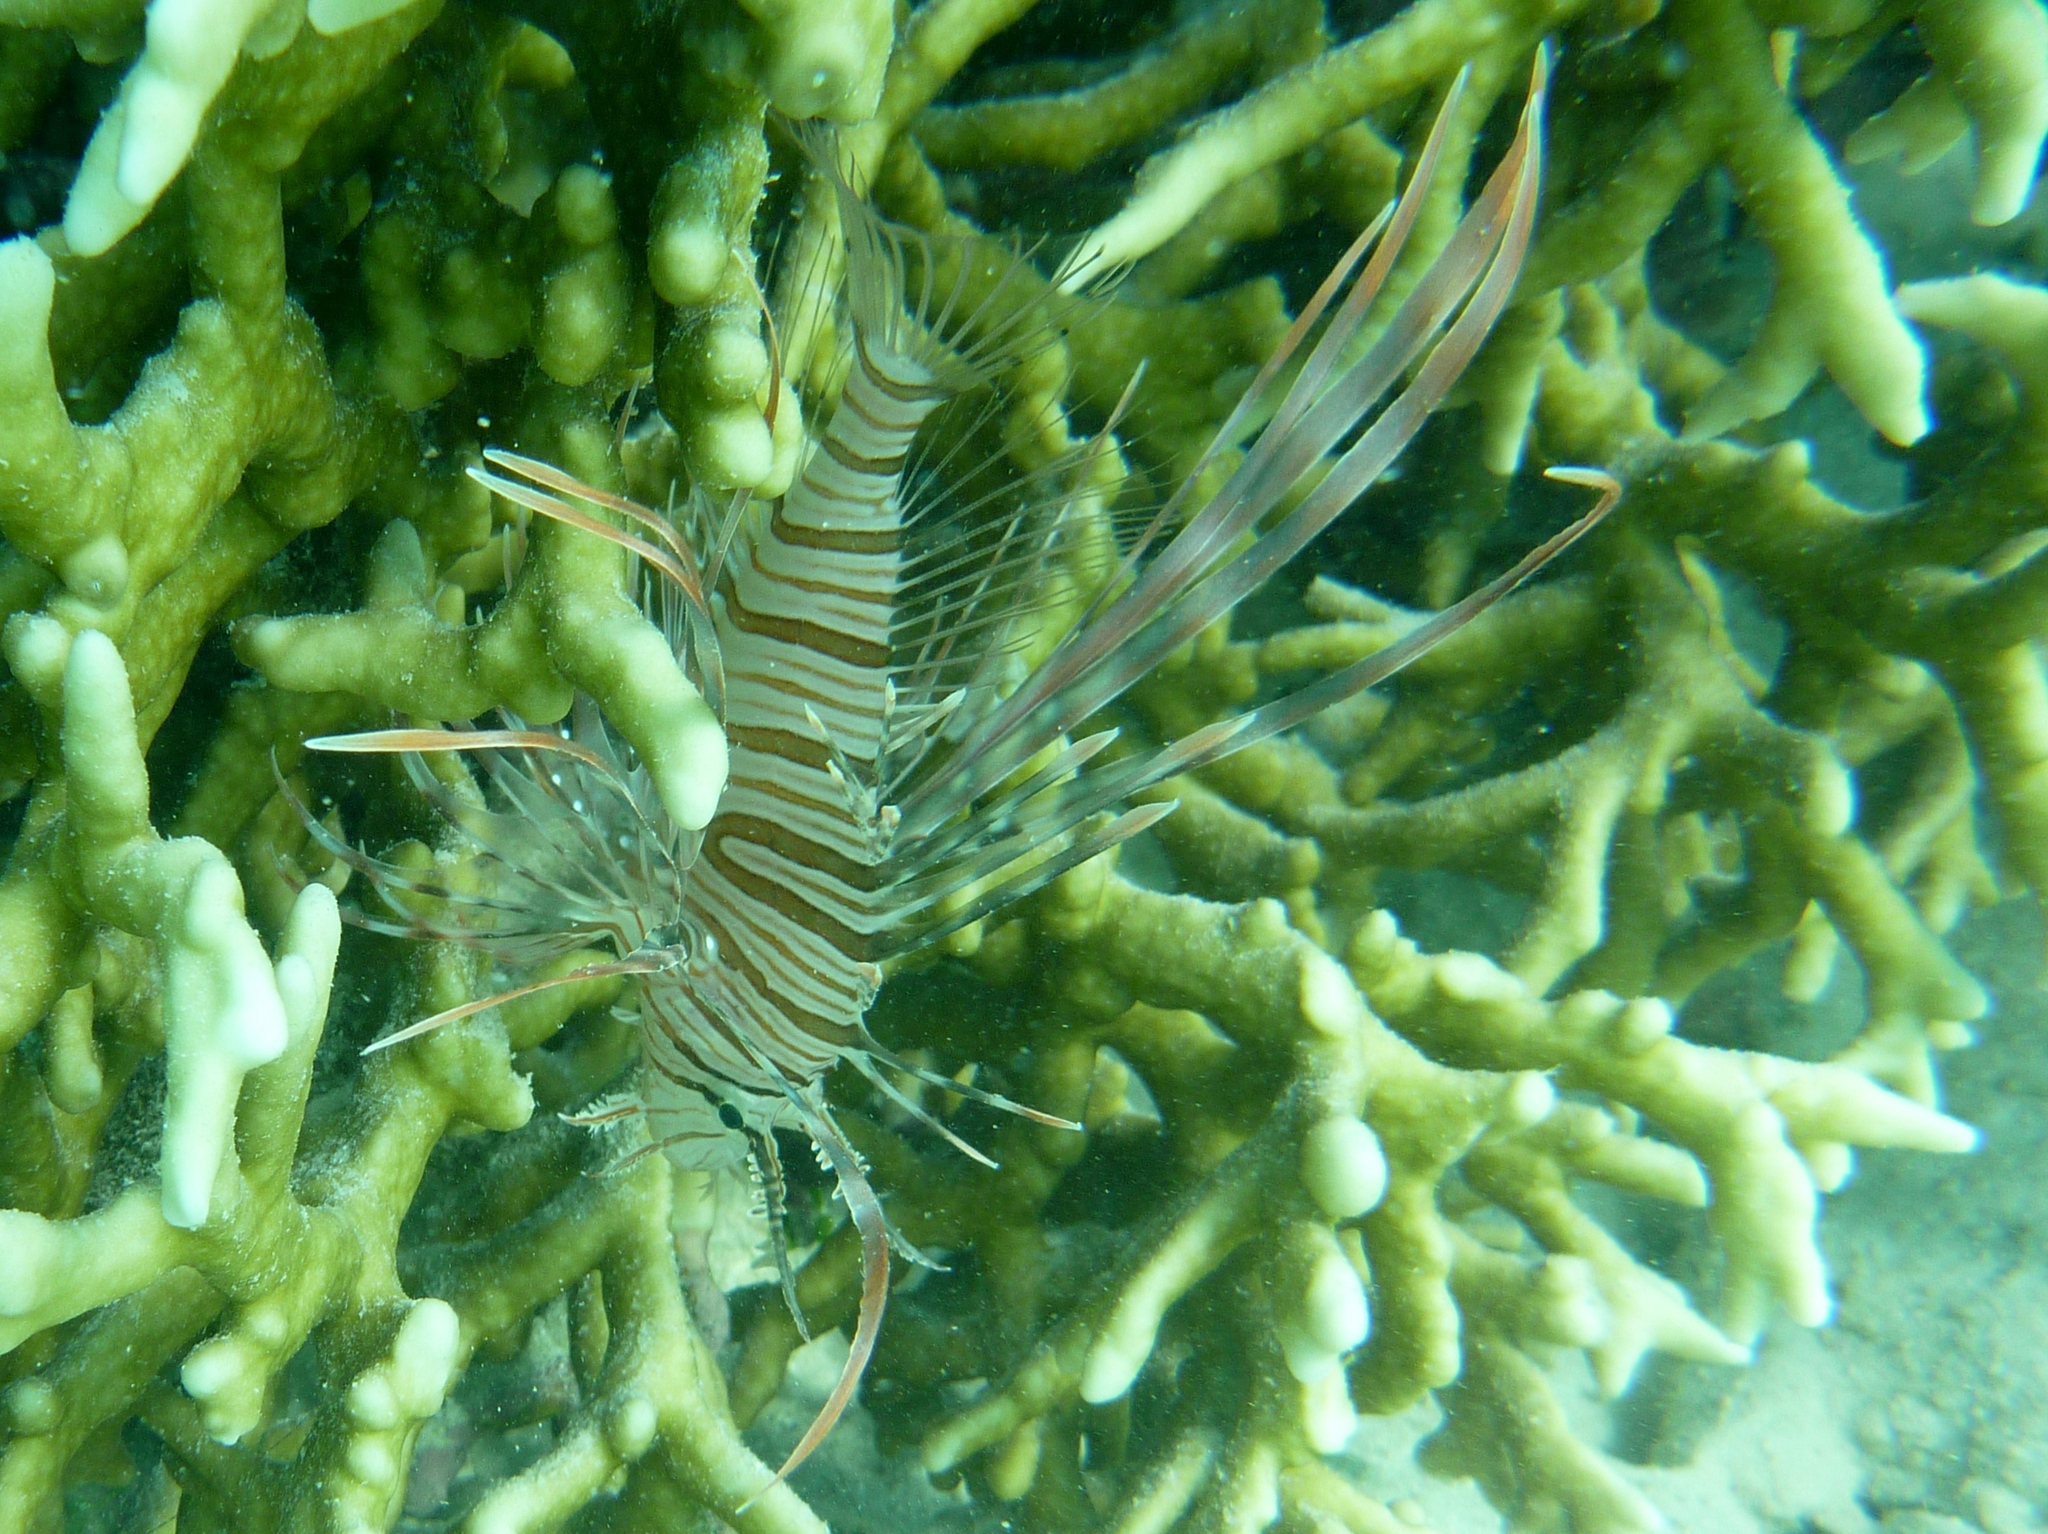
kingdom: Animalia
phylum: Chordata
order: Scorpaeniformes
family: Scorpaenidae
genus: Pterois
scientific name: Pterois volitans
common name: Lionfish
